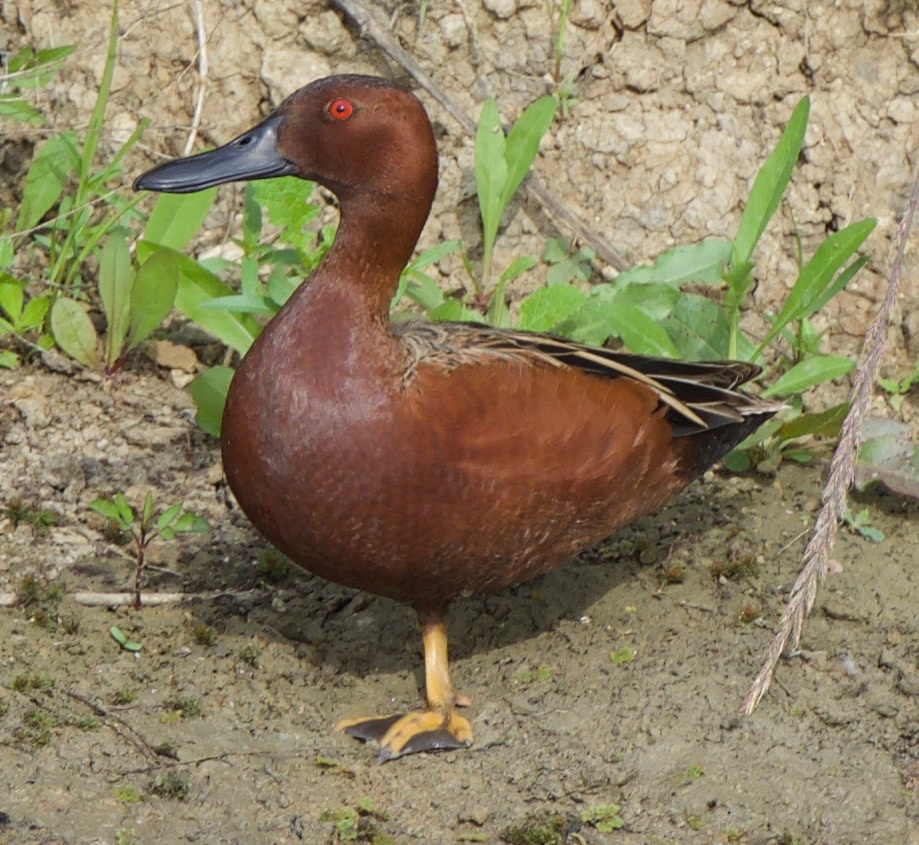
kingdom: Animalia
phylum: Chordata
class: Aves
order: Anseriformes
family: Anatidae
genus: Spatula
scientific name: Spatula cyanoptera
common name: Cinnamon teal
